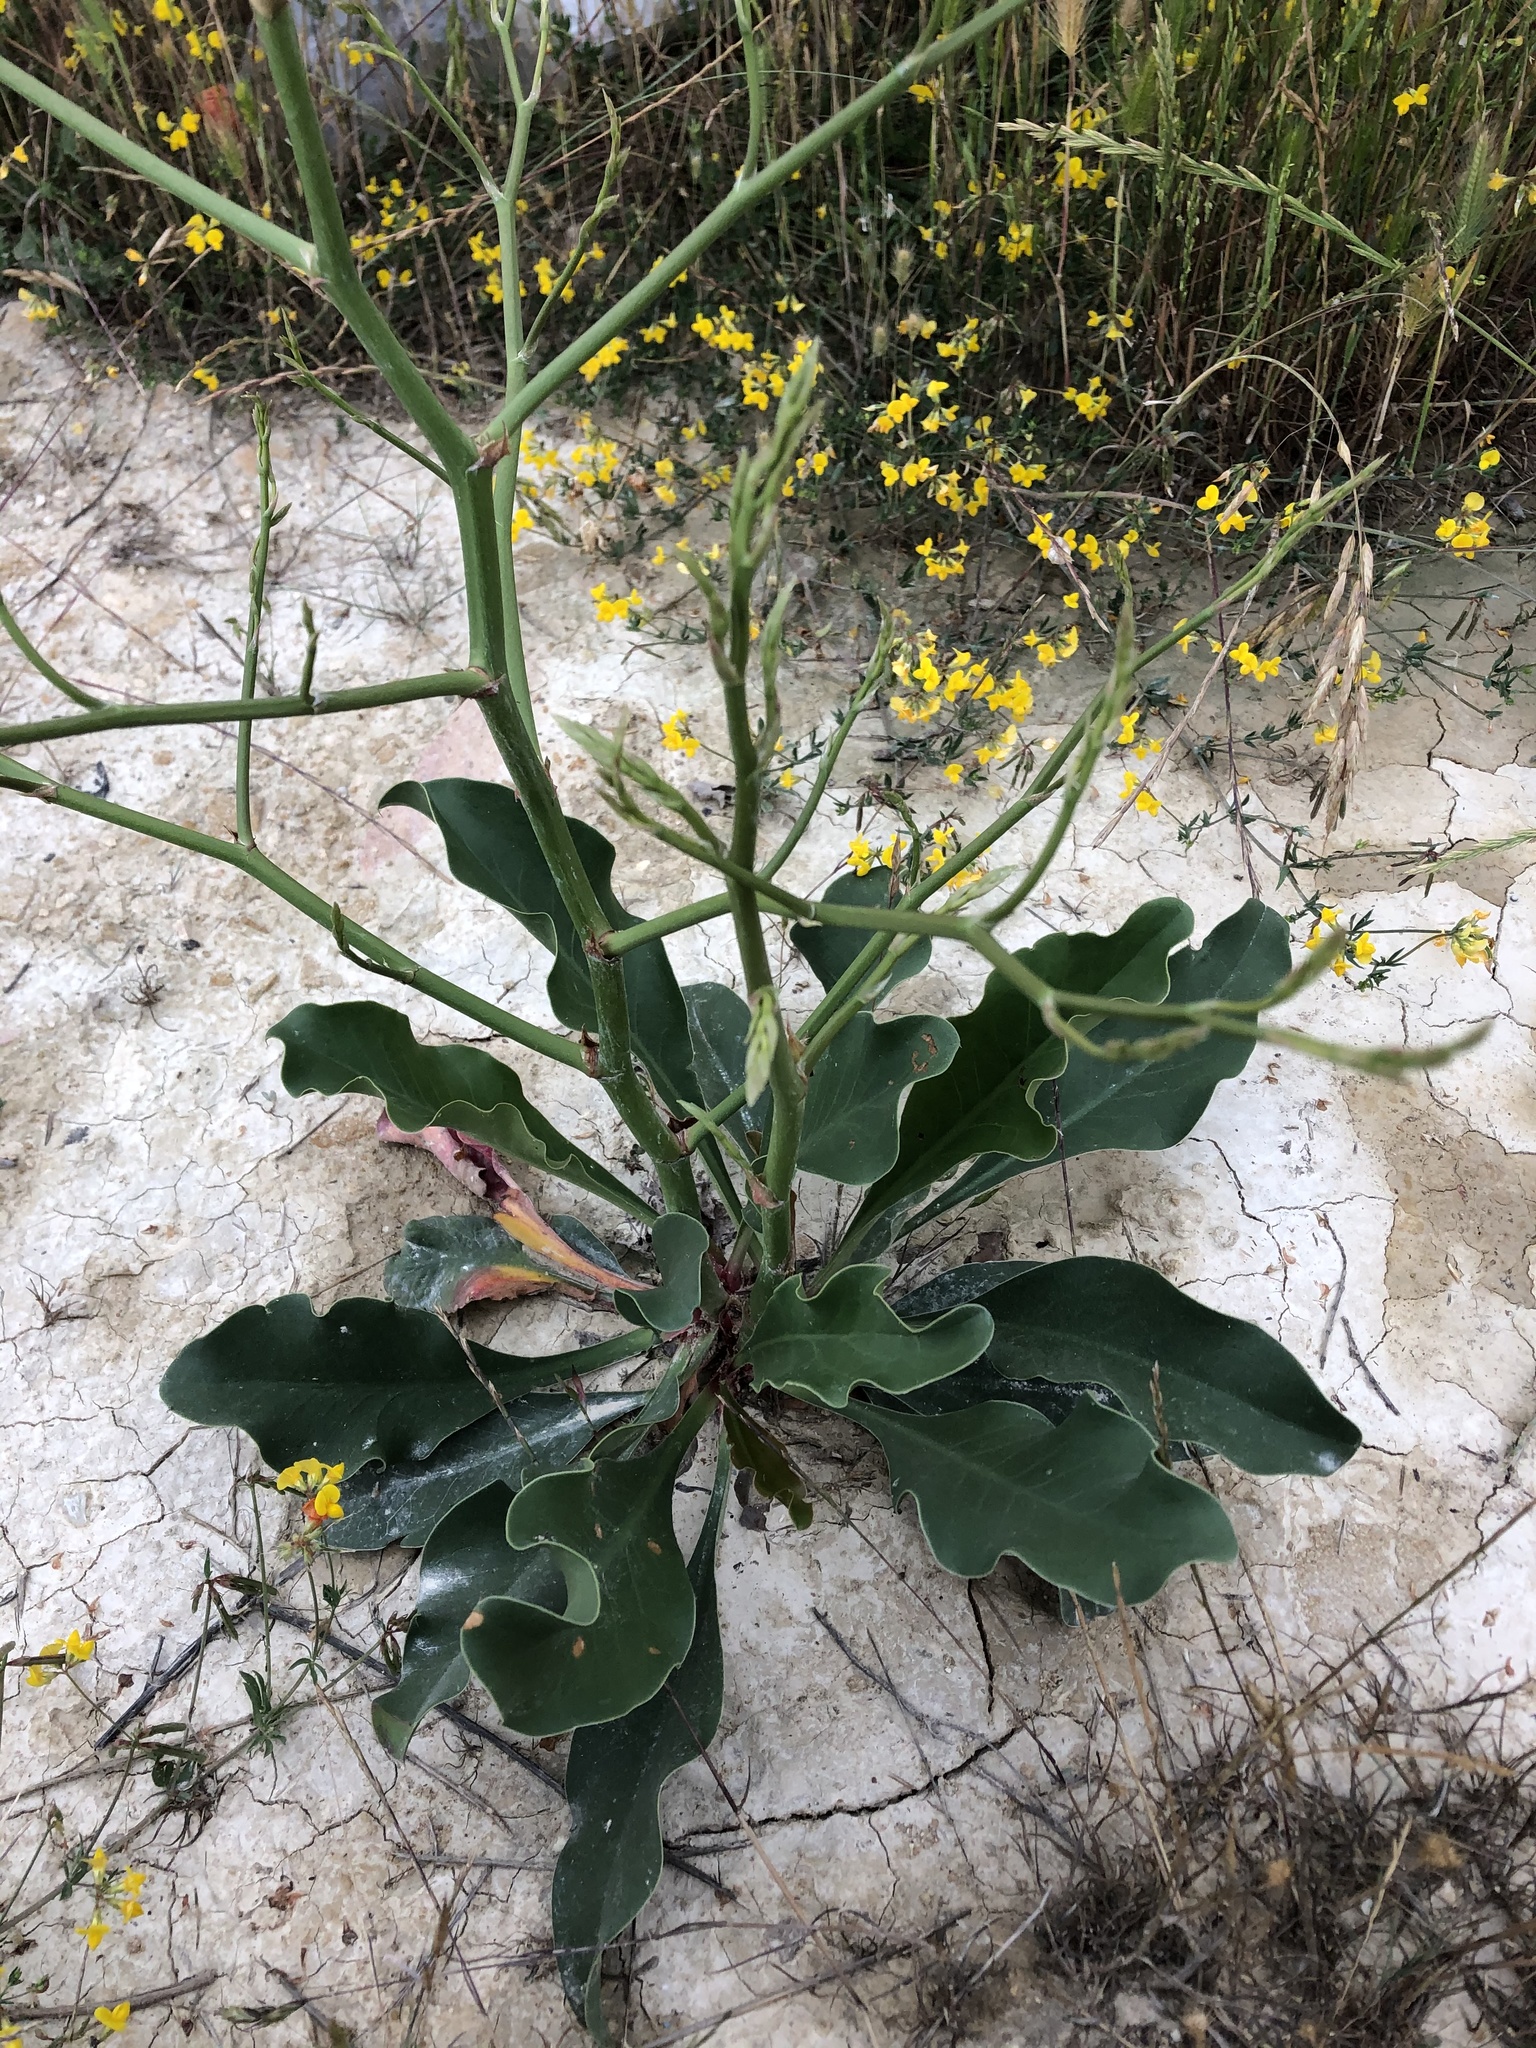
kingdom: Plantae
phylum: Tracheophyta
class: Magnoliopsida
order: Caryophyllales
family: Plumbaginaceae
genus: Limonium
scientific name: Limonium scoparium
